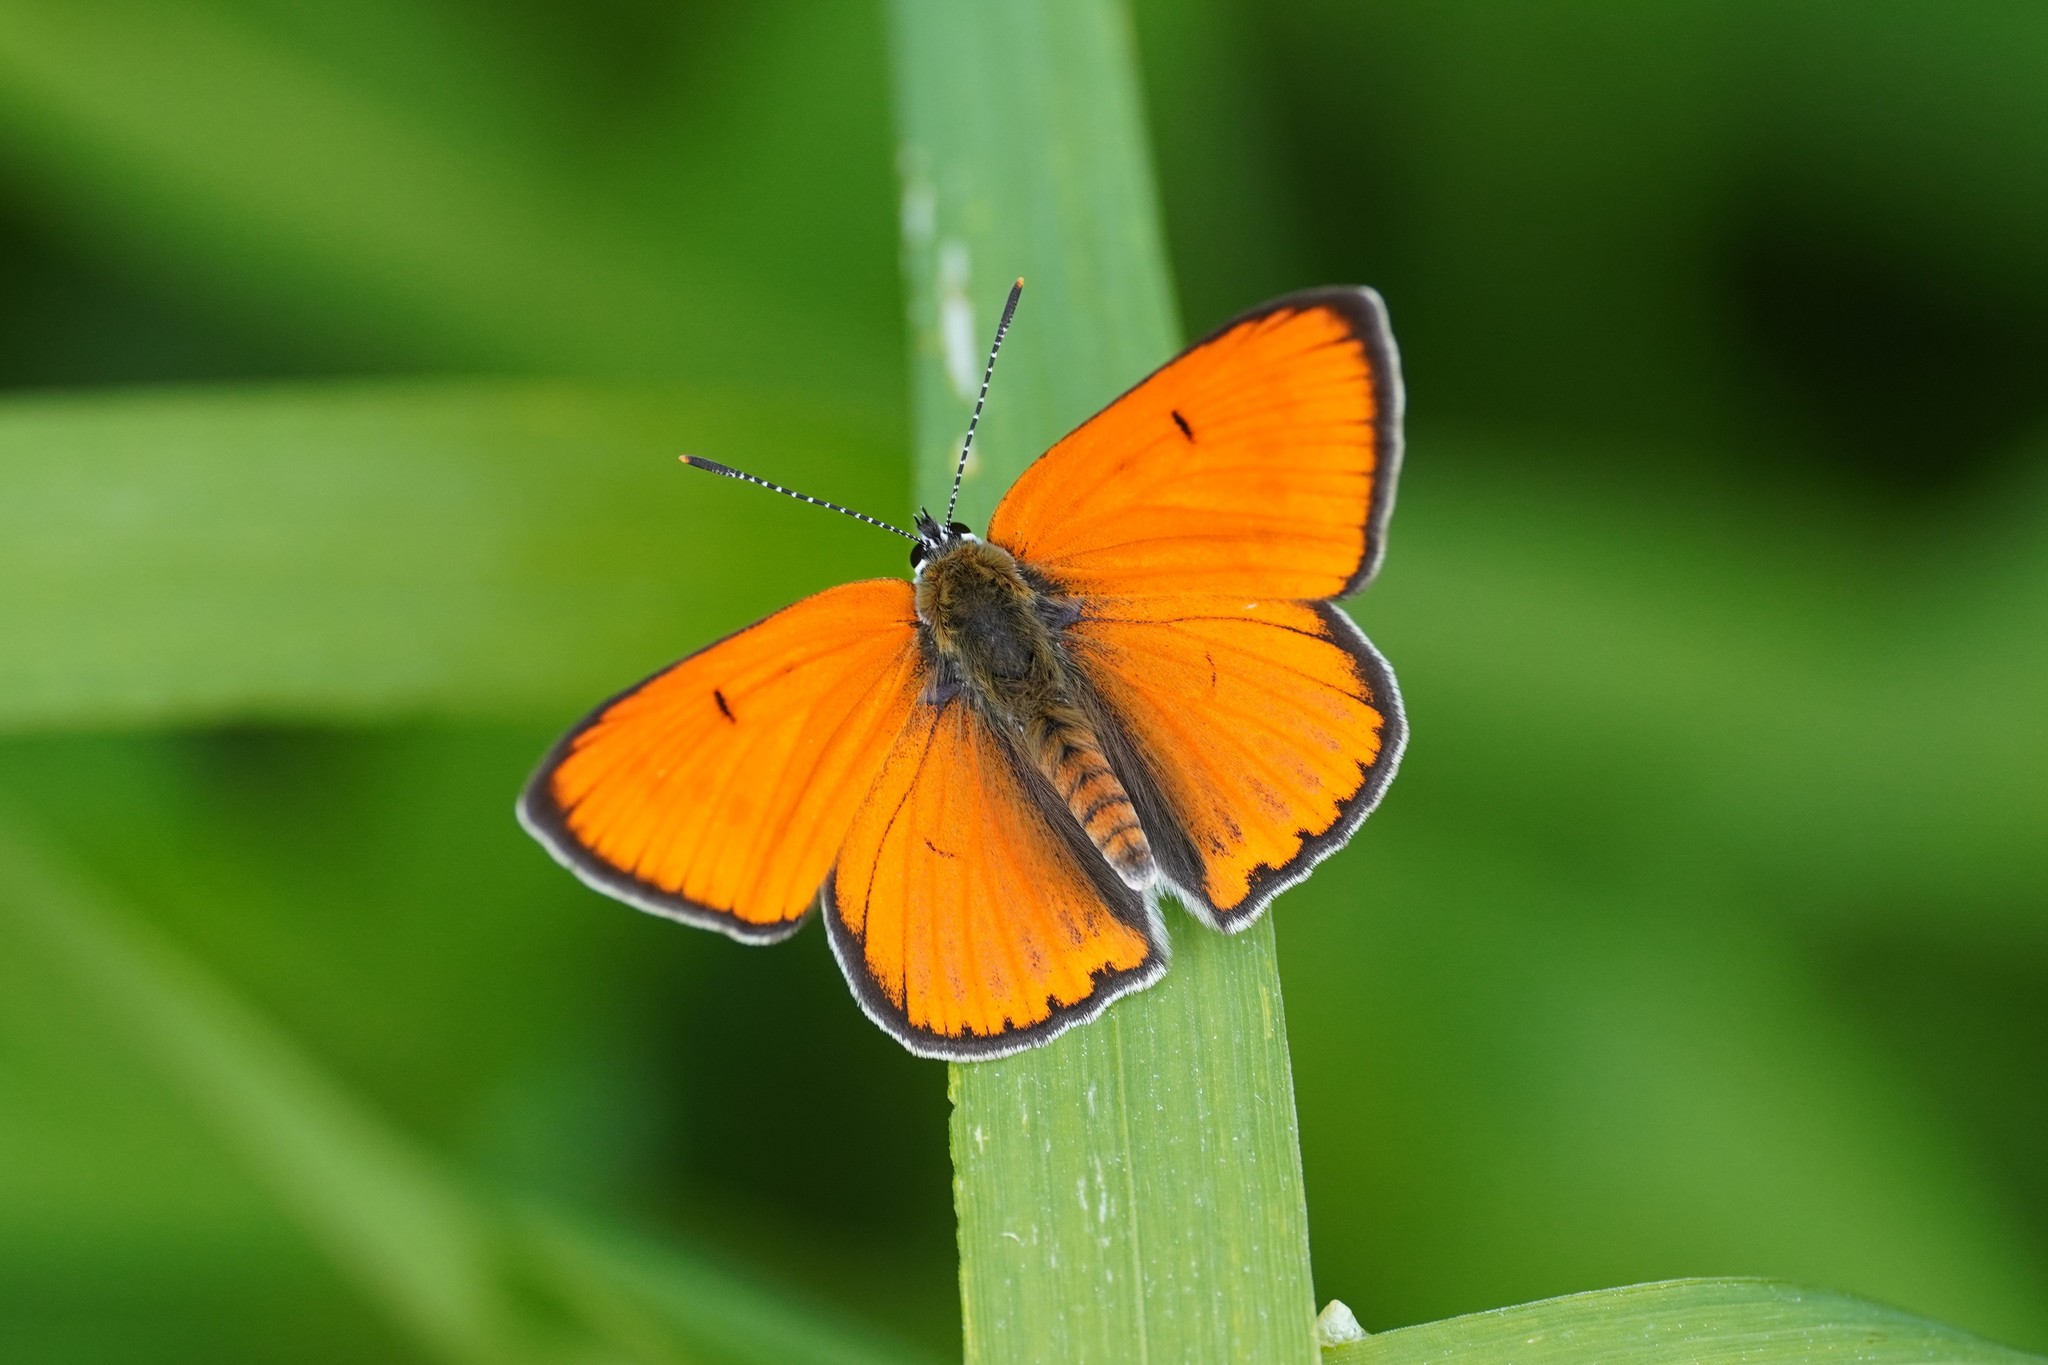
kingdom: Animalia
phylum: Arthropoda
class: Insecta
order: Lepidoptera
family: Lycaenidae
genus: Lycaena
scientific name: Lycaena dispar
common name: Large copper
